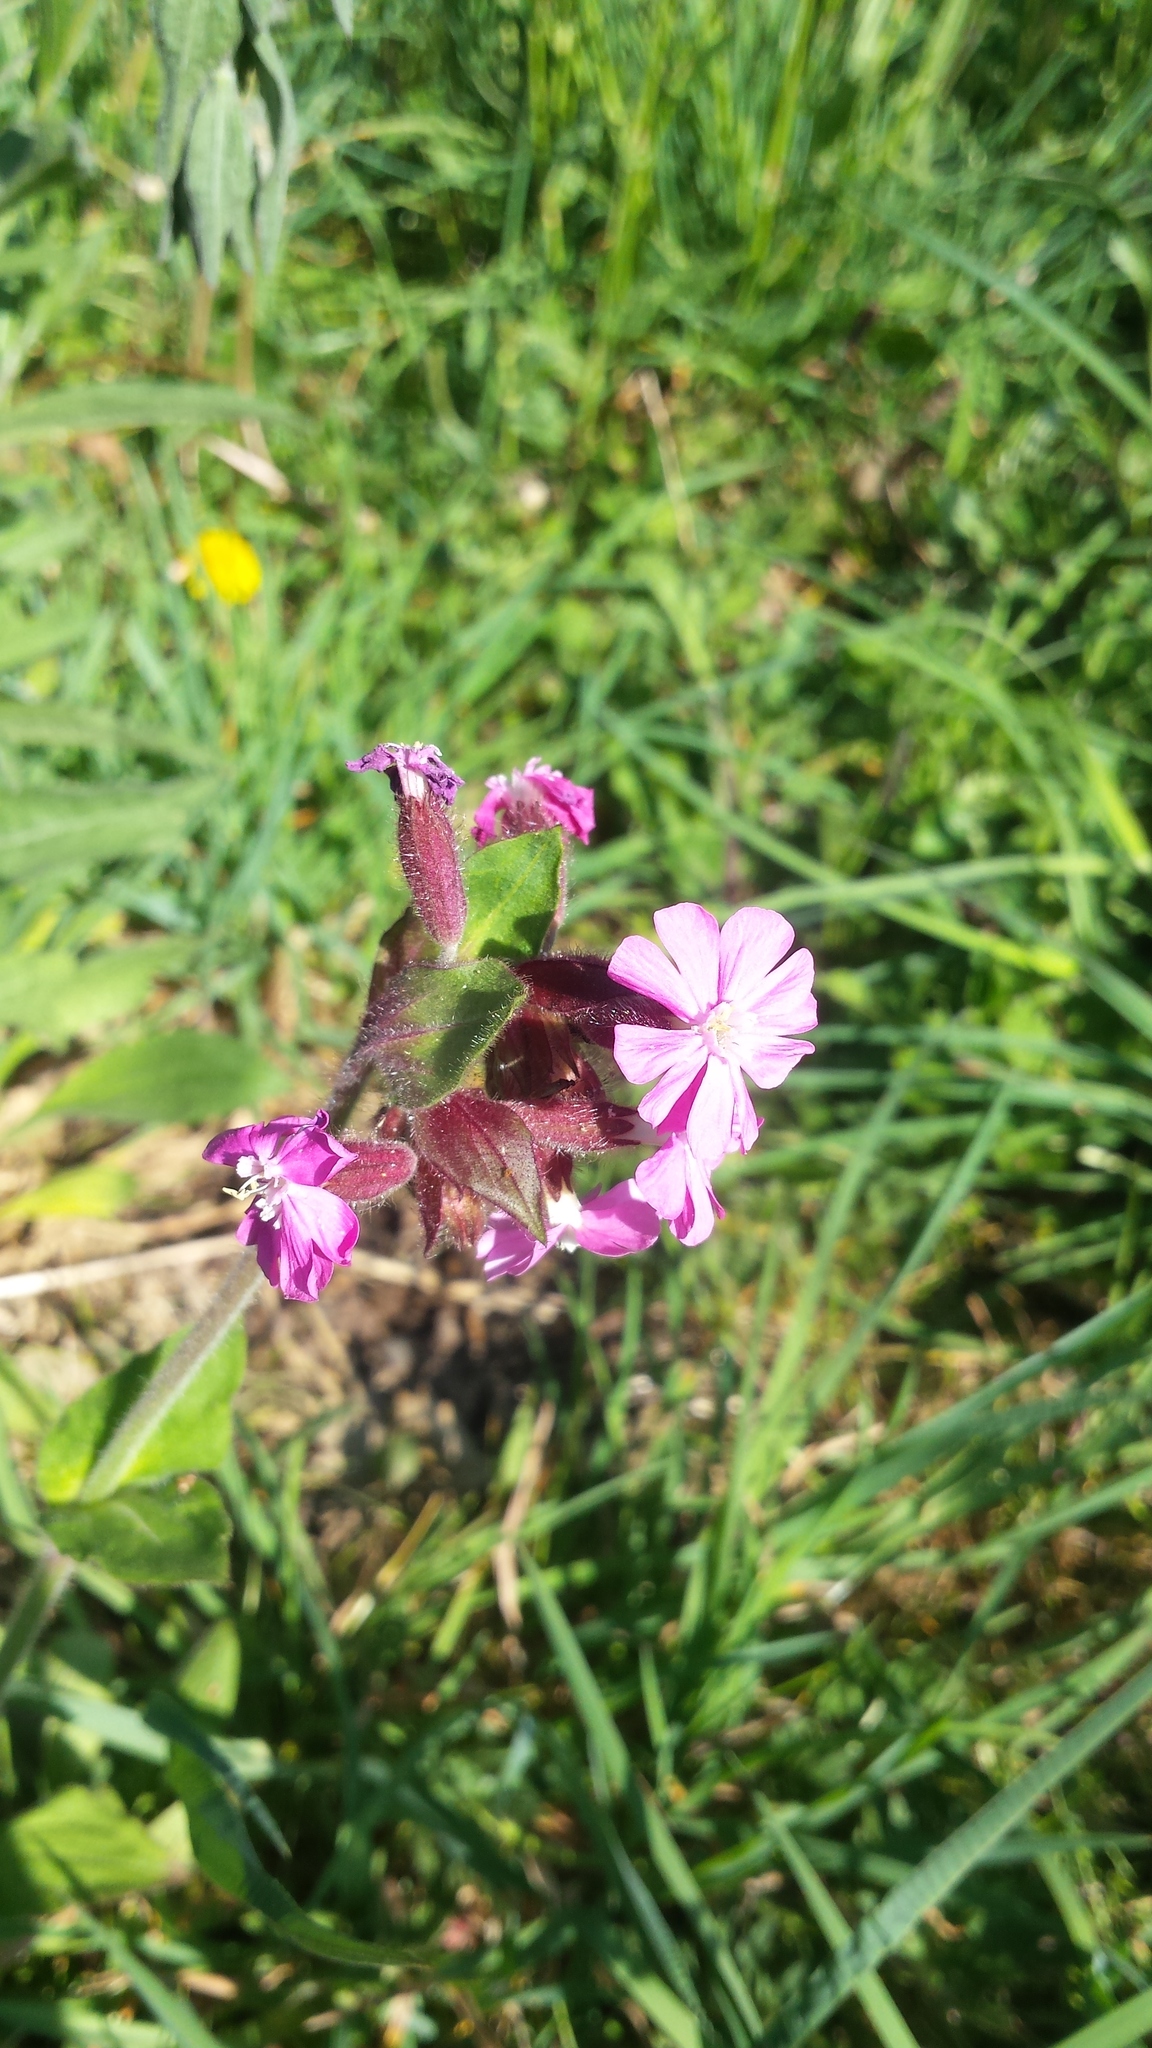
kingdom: Plantae
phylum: Tracheophyta
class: Magnoliopsida
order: Caryophyllales
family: Caryophyllaceae
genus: Silene
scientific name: Silene dioica
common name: Red campion
